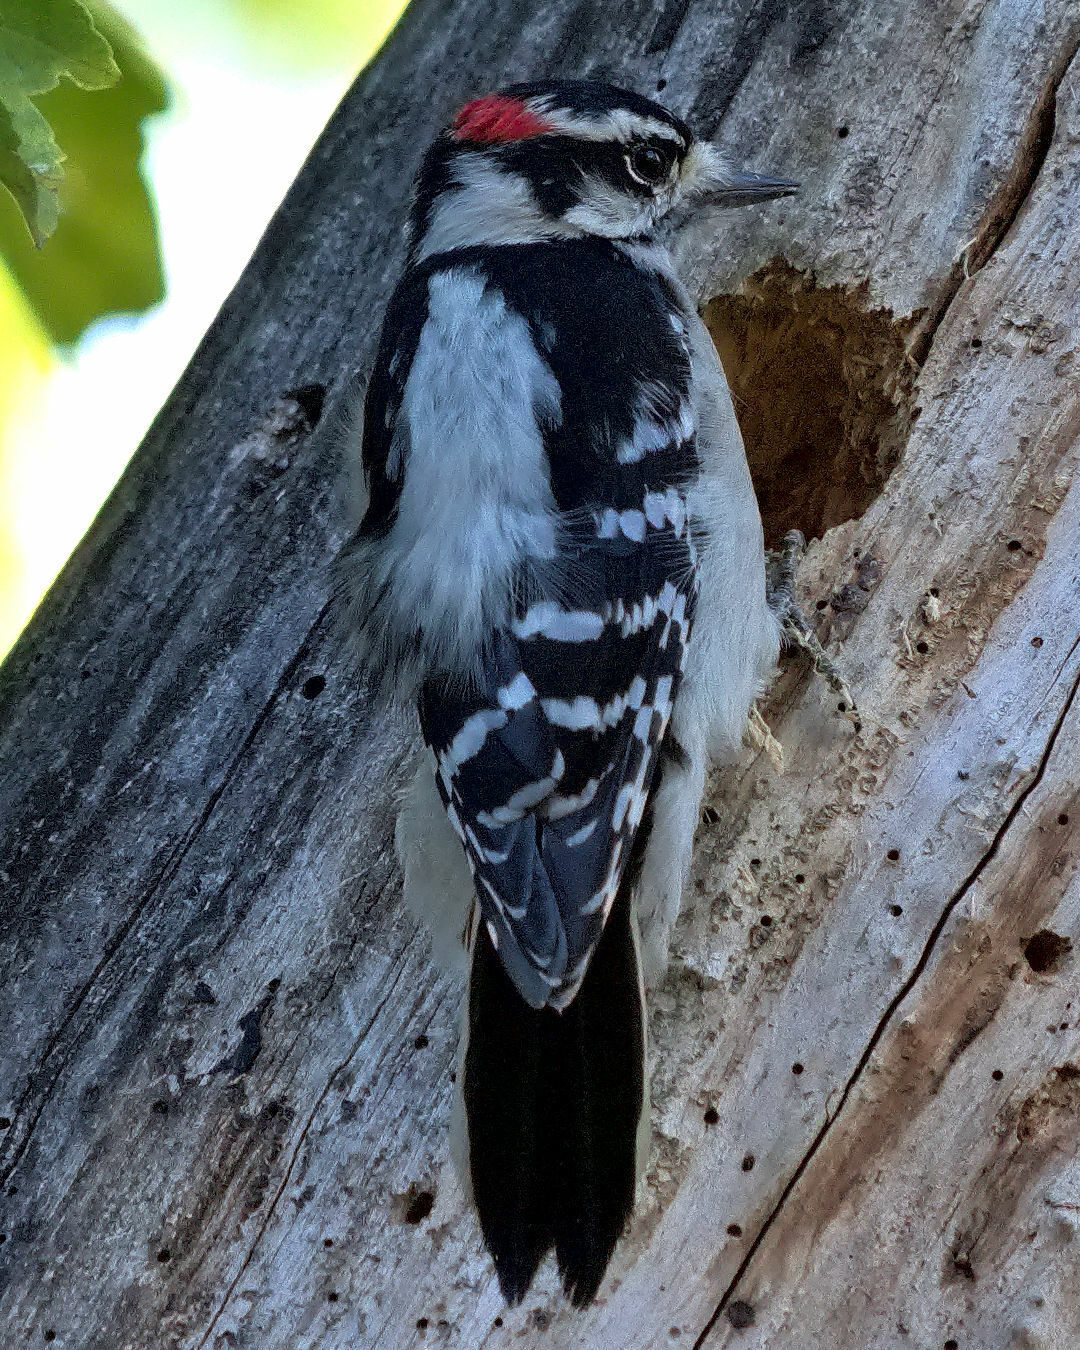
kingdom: Animalia
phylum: Chordata
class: Aves
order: Piciformes
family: Picidae
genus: Dryobates
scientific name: Dryobates pubescens
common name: Downy woodpecker
